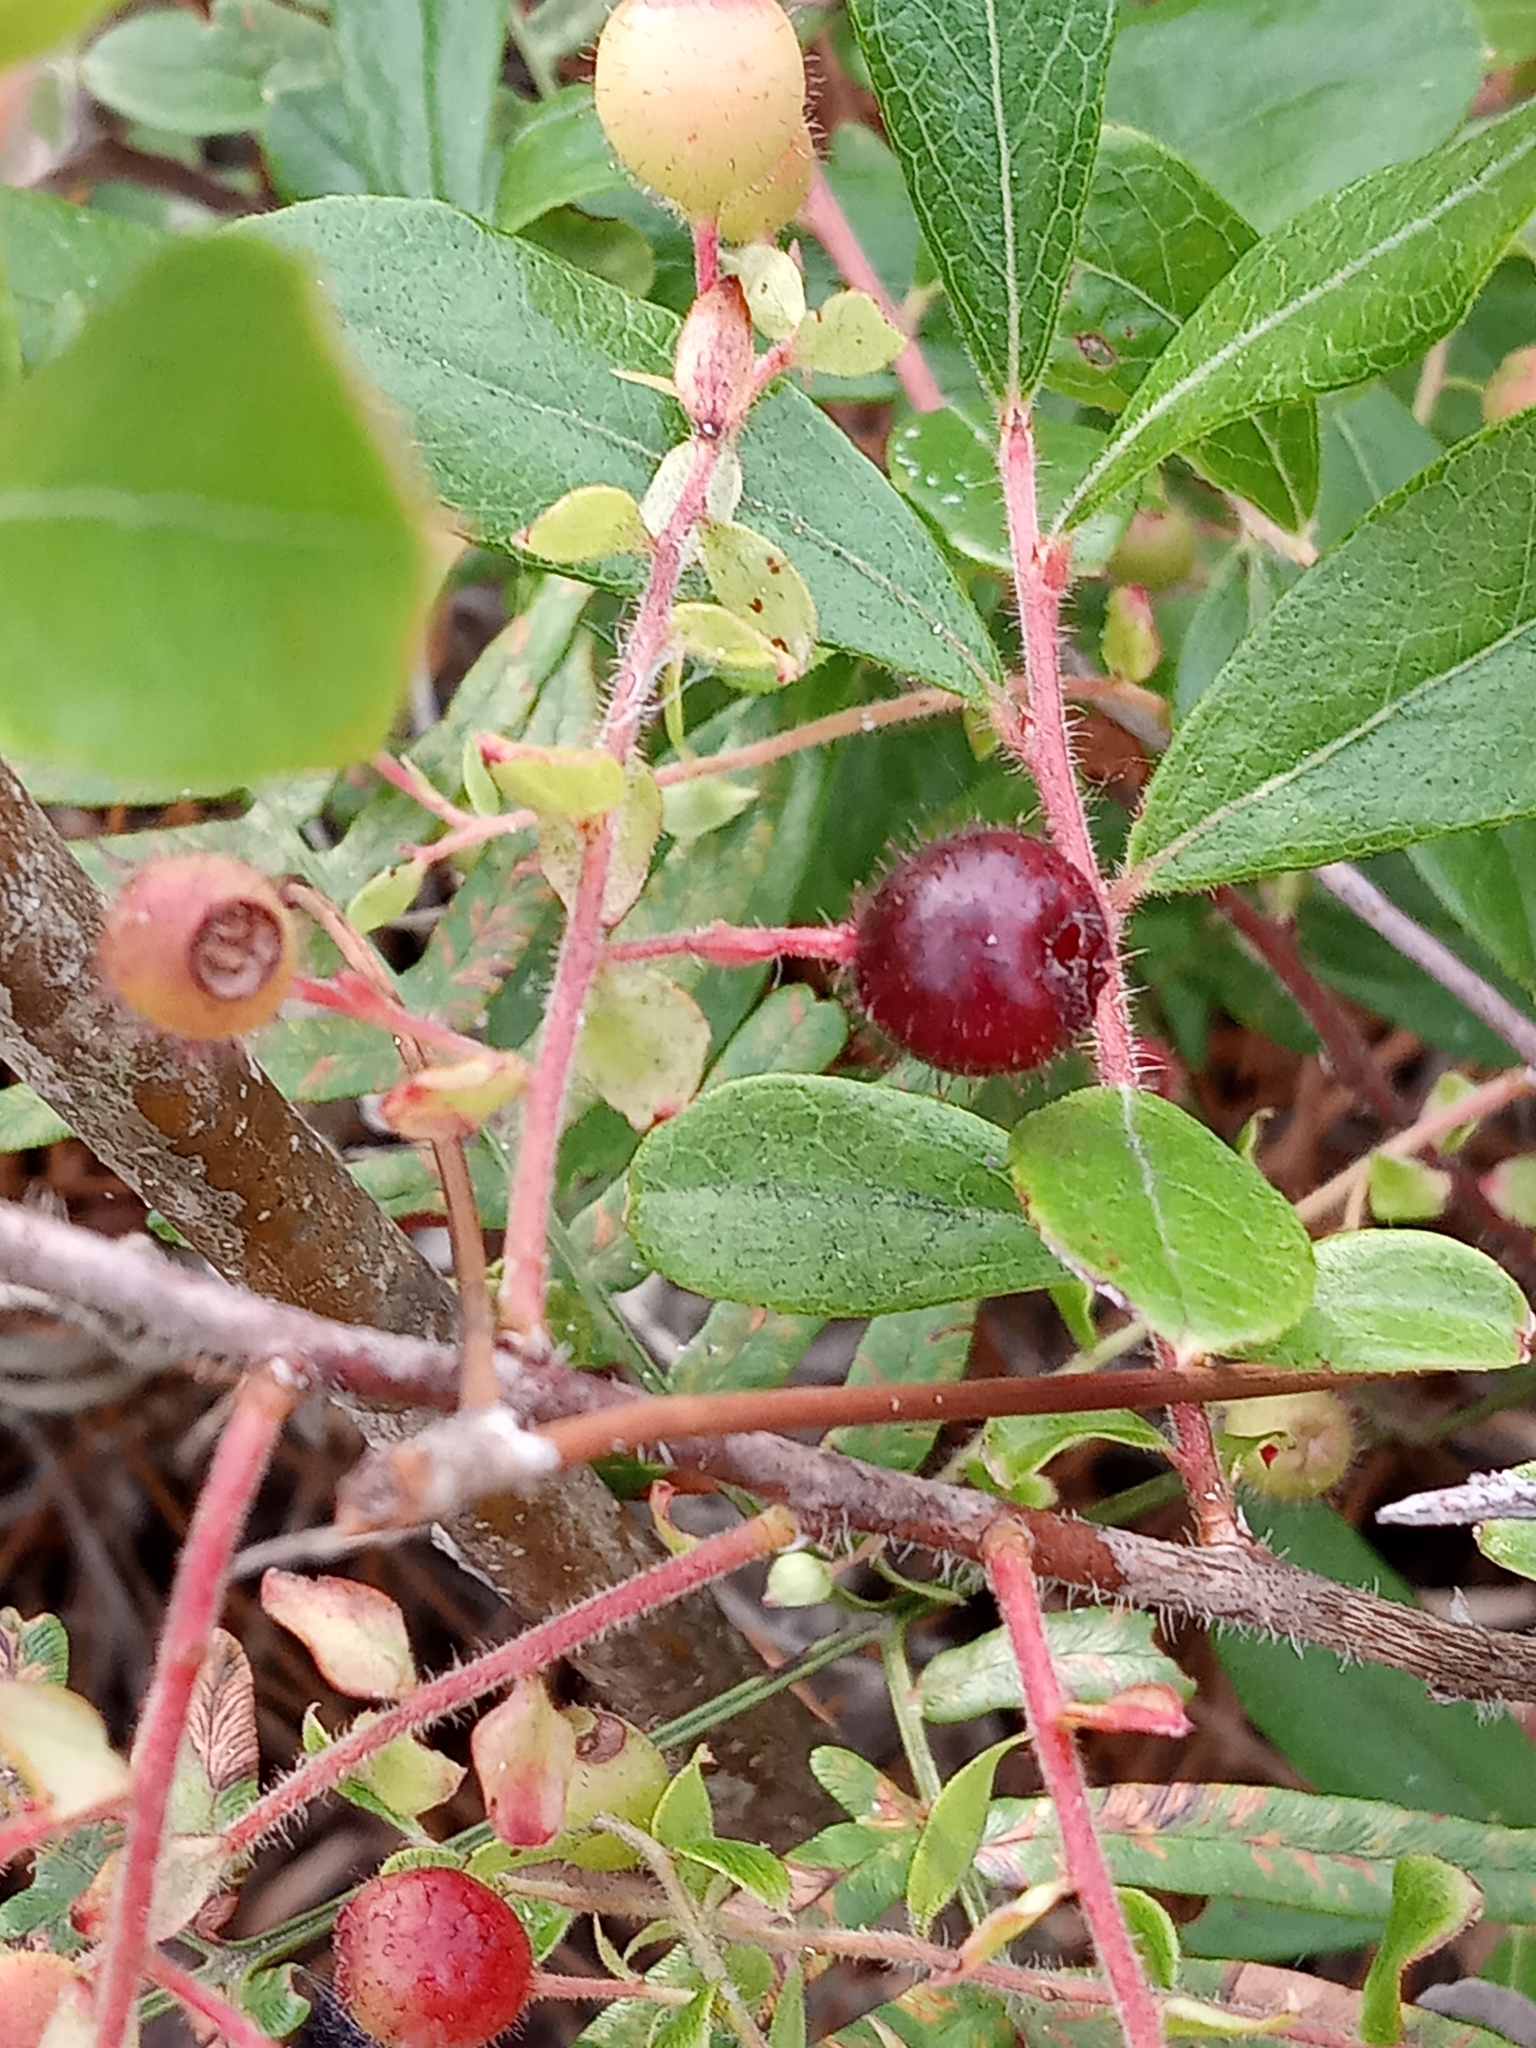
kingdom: Plantae
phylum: Tracheophyta
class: Magnoliopsida
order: Ericales
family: Ericaceae
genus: Gaylussacia
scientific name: Gaylussacia mosieri
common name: Hirsute huckleberry
